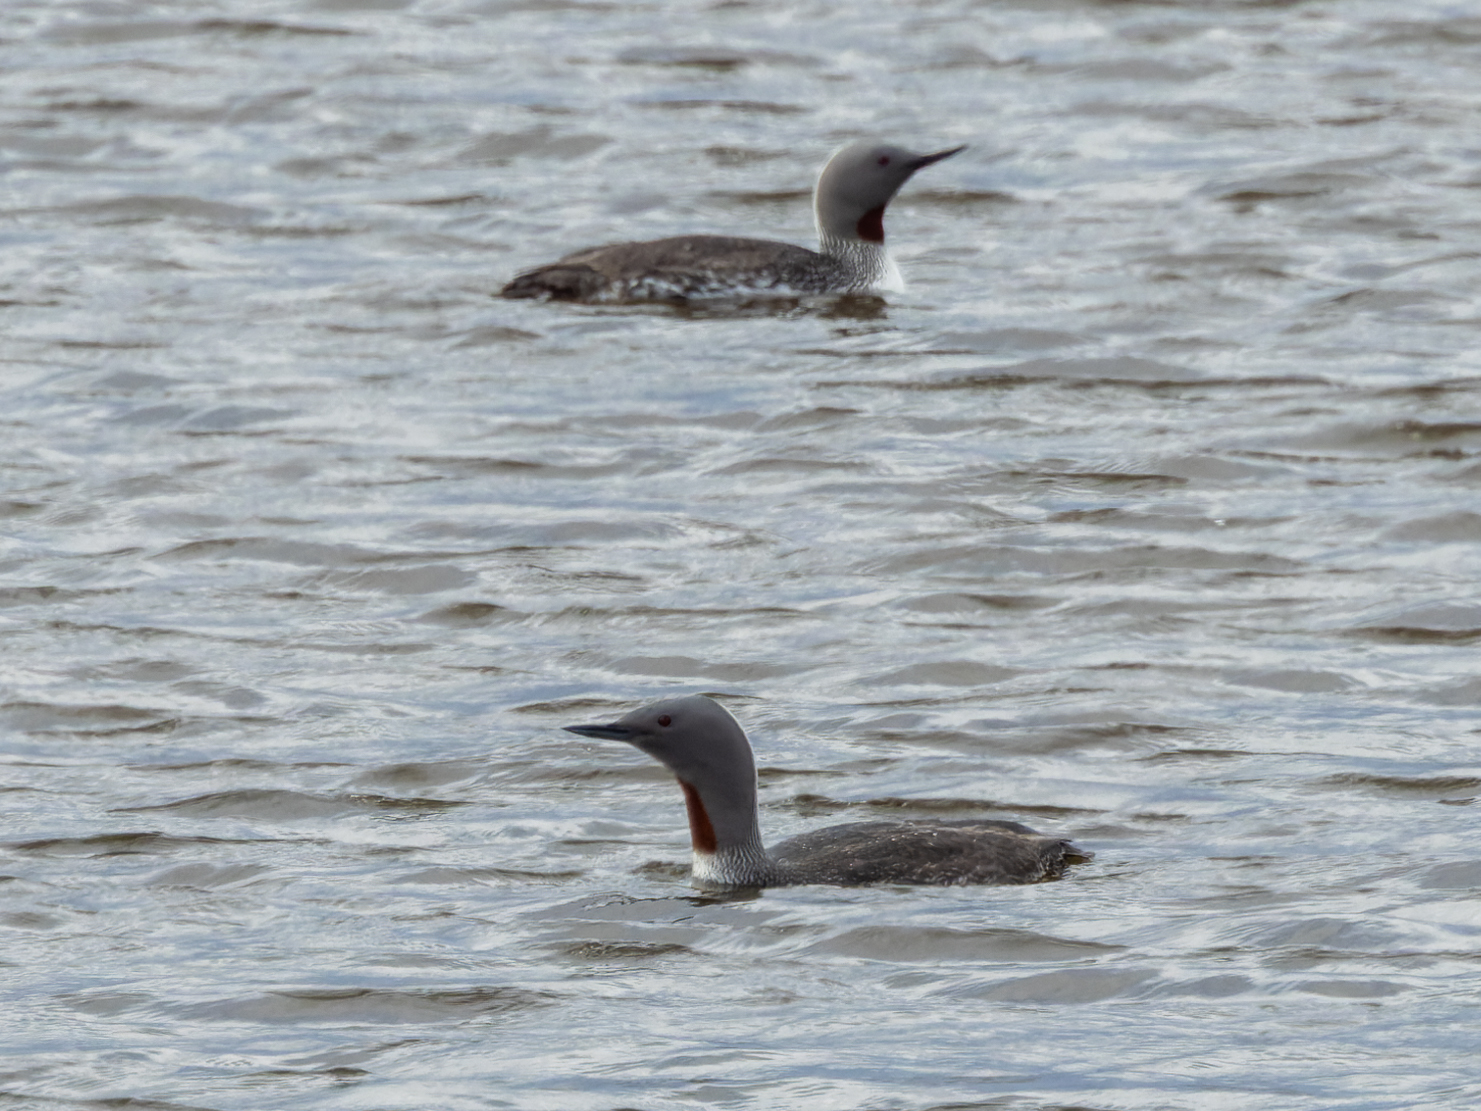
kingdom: Animalia
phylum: Chordata
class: Aves
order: Gaviiformes
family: Gaviidae
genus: Gavia
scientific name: Gavia stellata
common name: Red-throated loon
